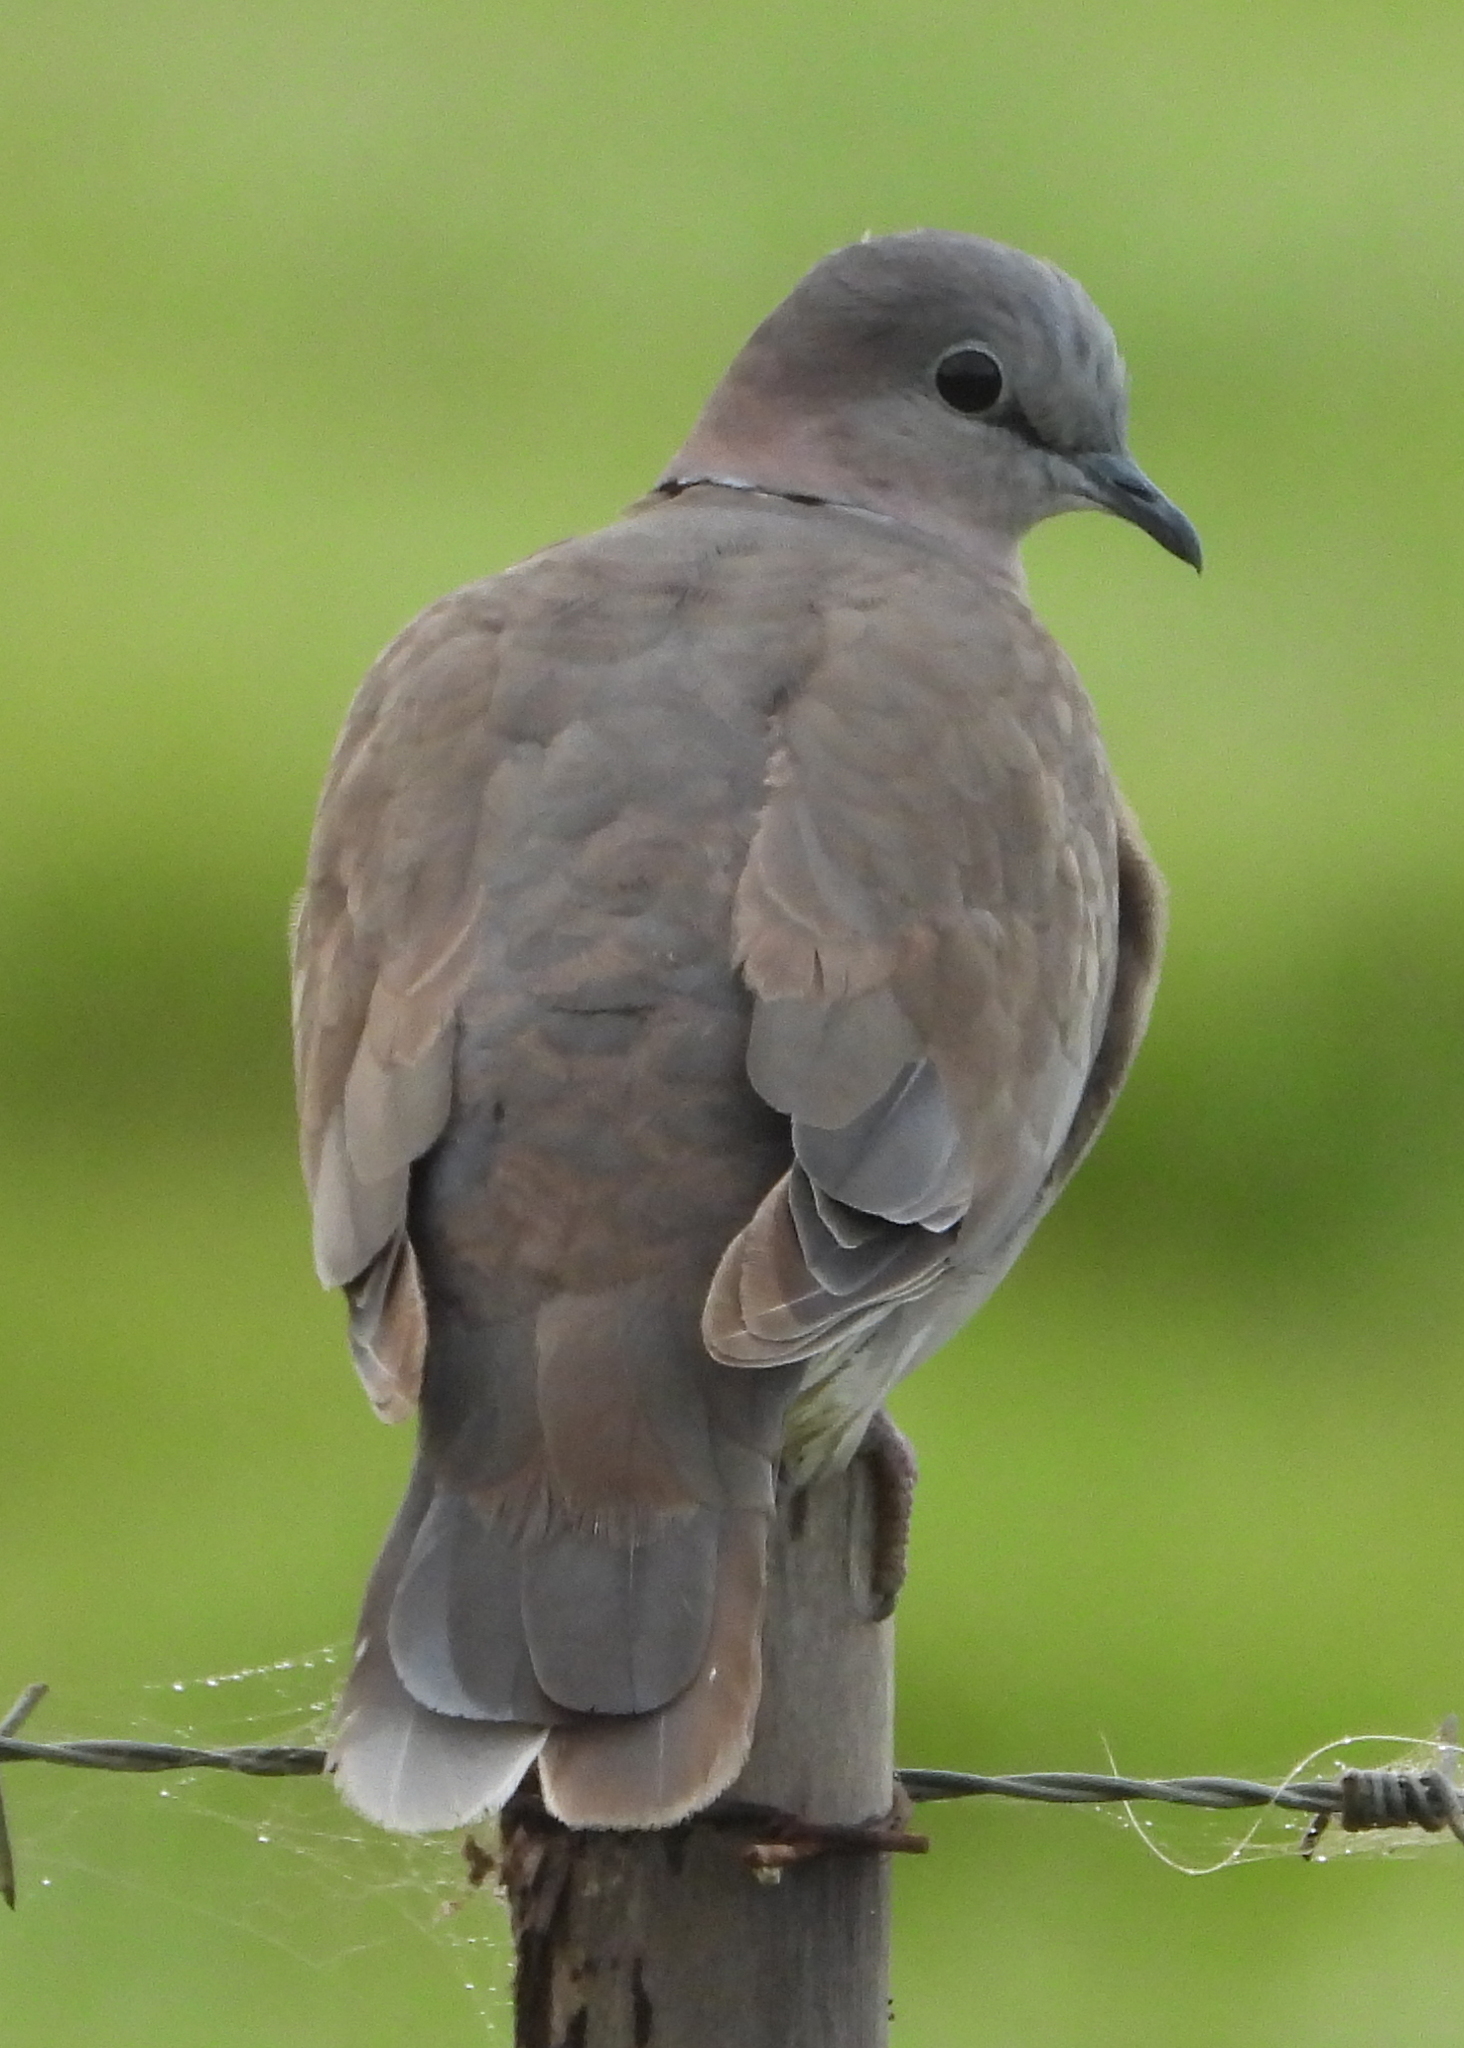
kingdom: Animalia
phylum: Chordata
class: Aves
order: Columbiformes
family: Columbidae
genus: Streptopelia
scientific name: Streptopelia capicola
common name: Ring-necked dove
